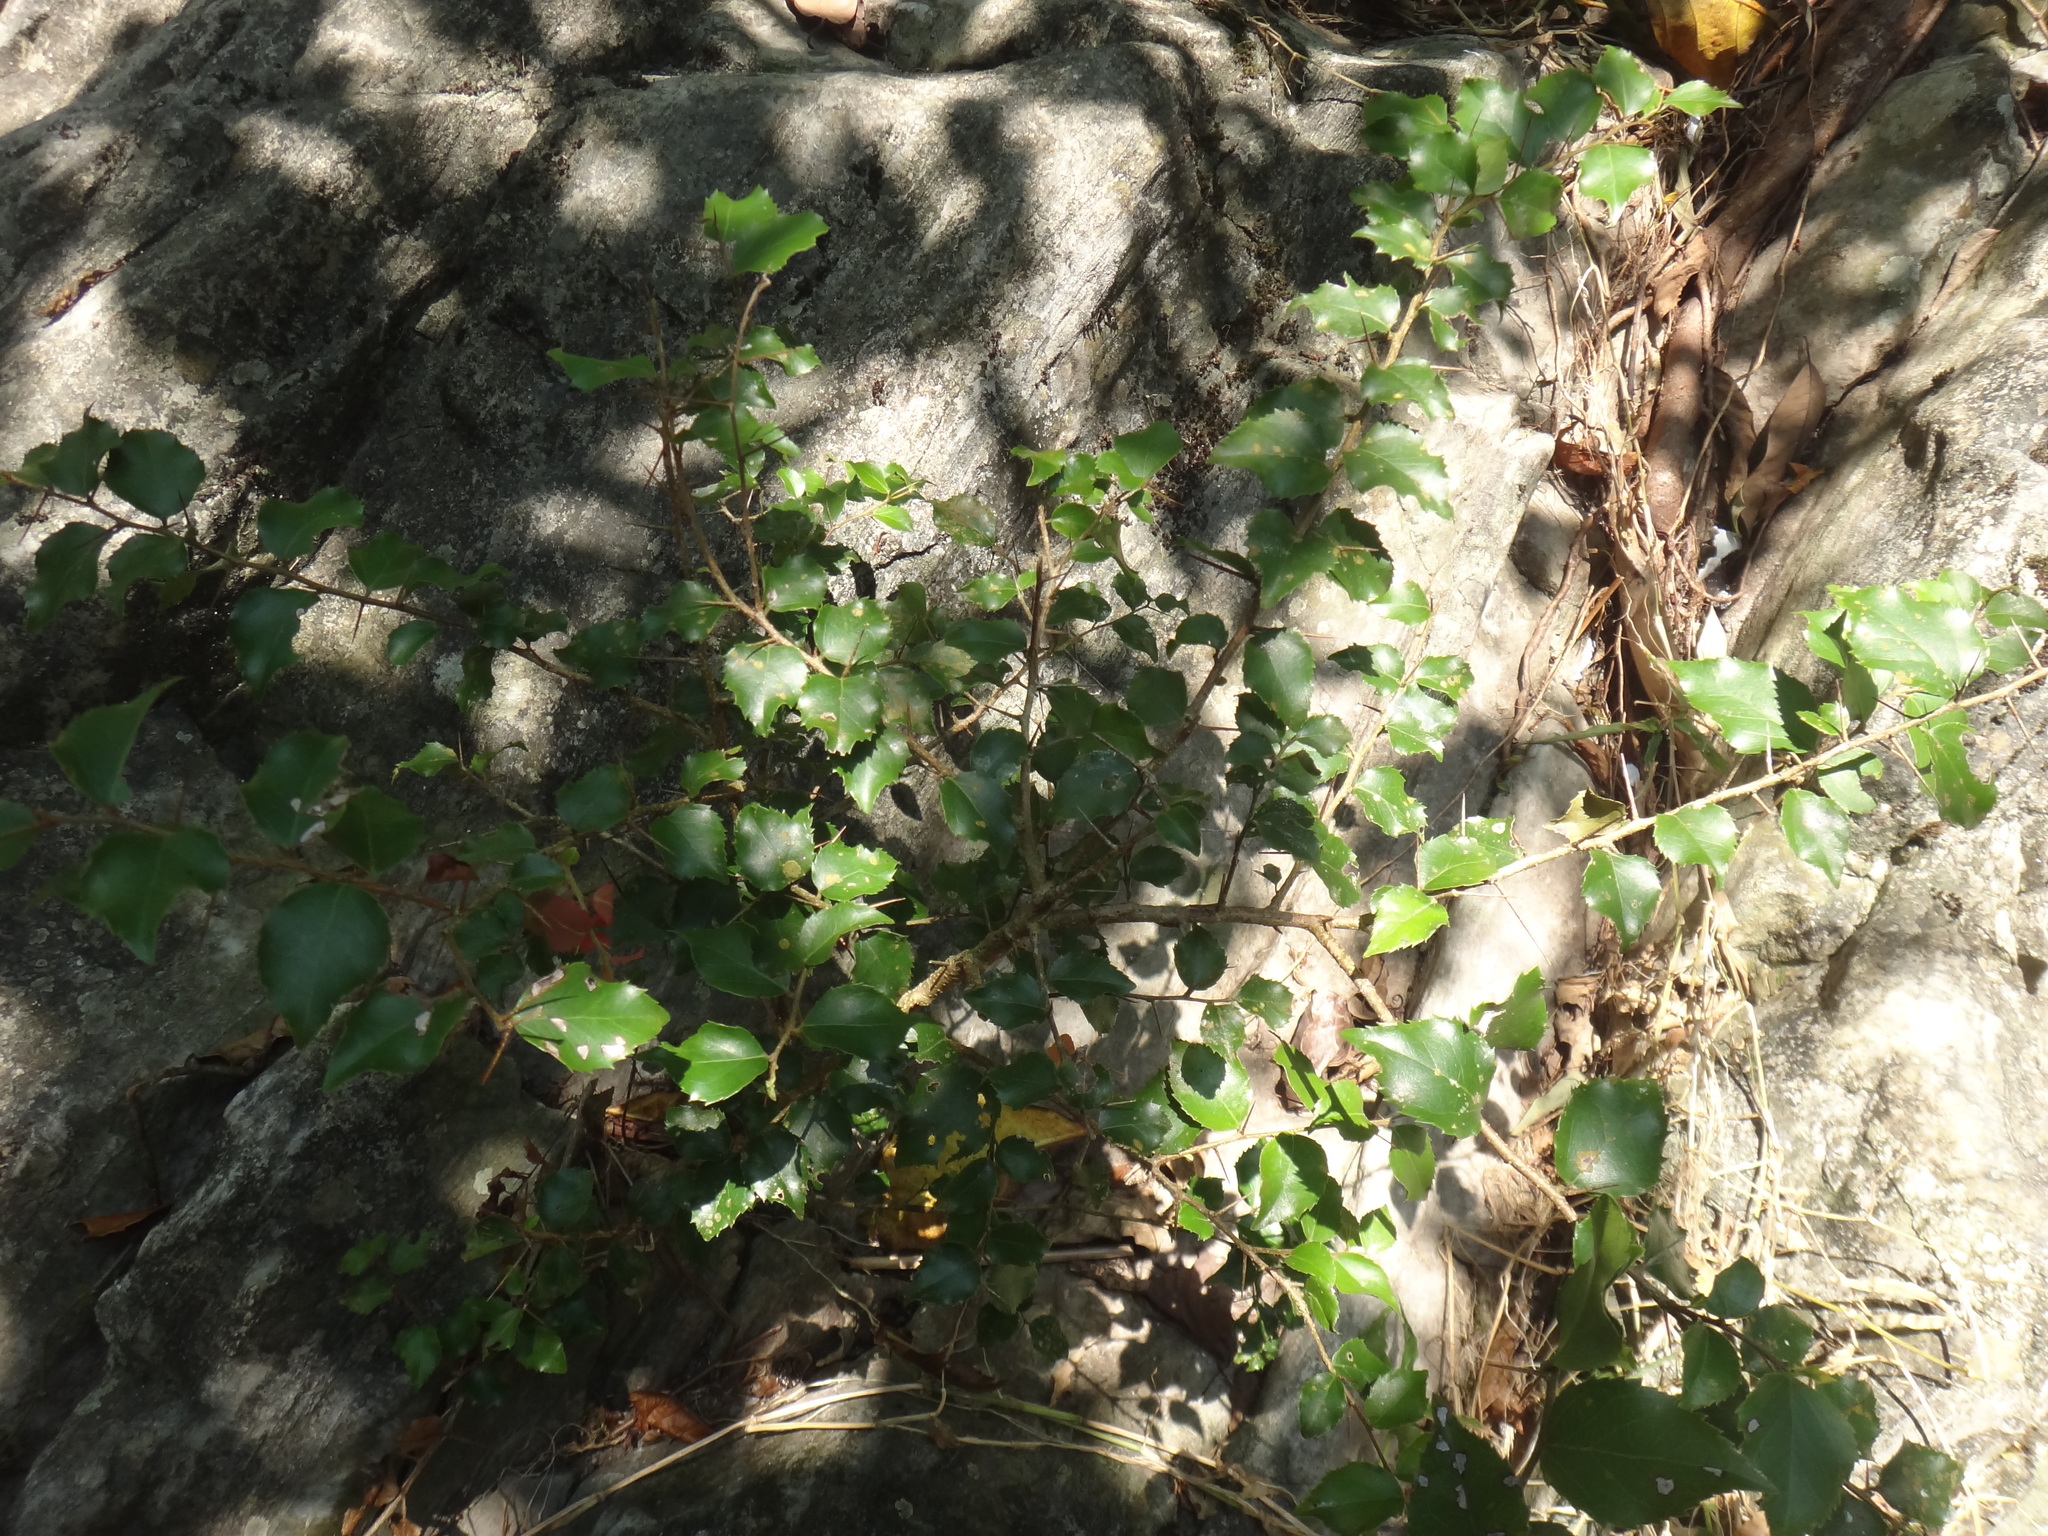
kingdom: Plantae
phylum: Tracheophyta
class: Magnoliopsida
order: Malpighiales
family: Salicaceae
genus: Xylosma
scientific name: Xylosma racemosum
